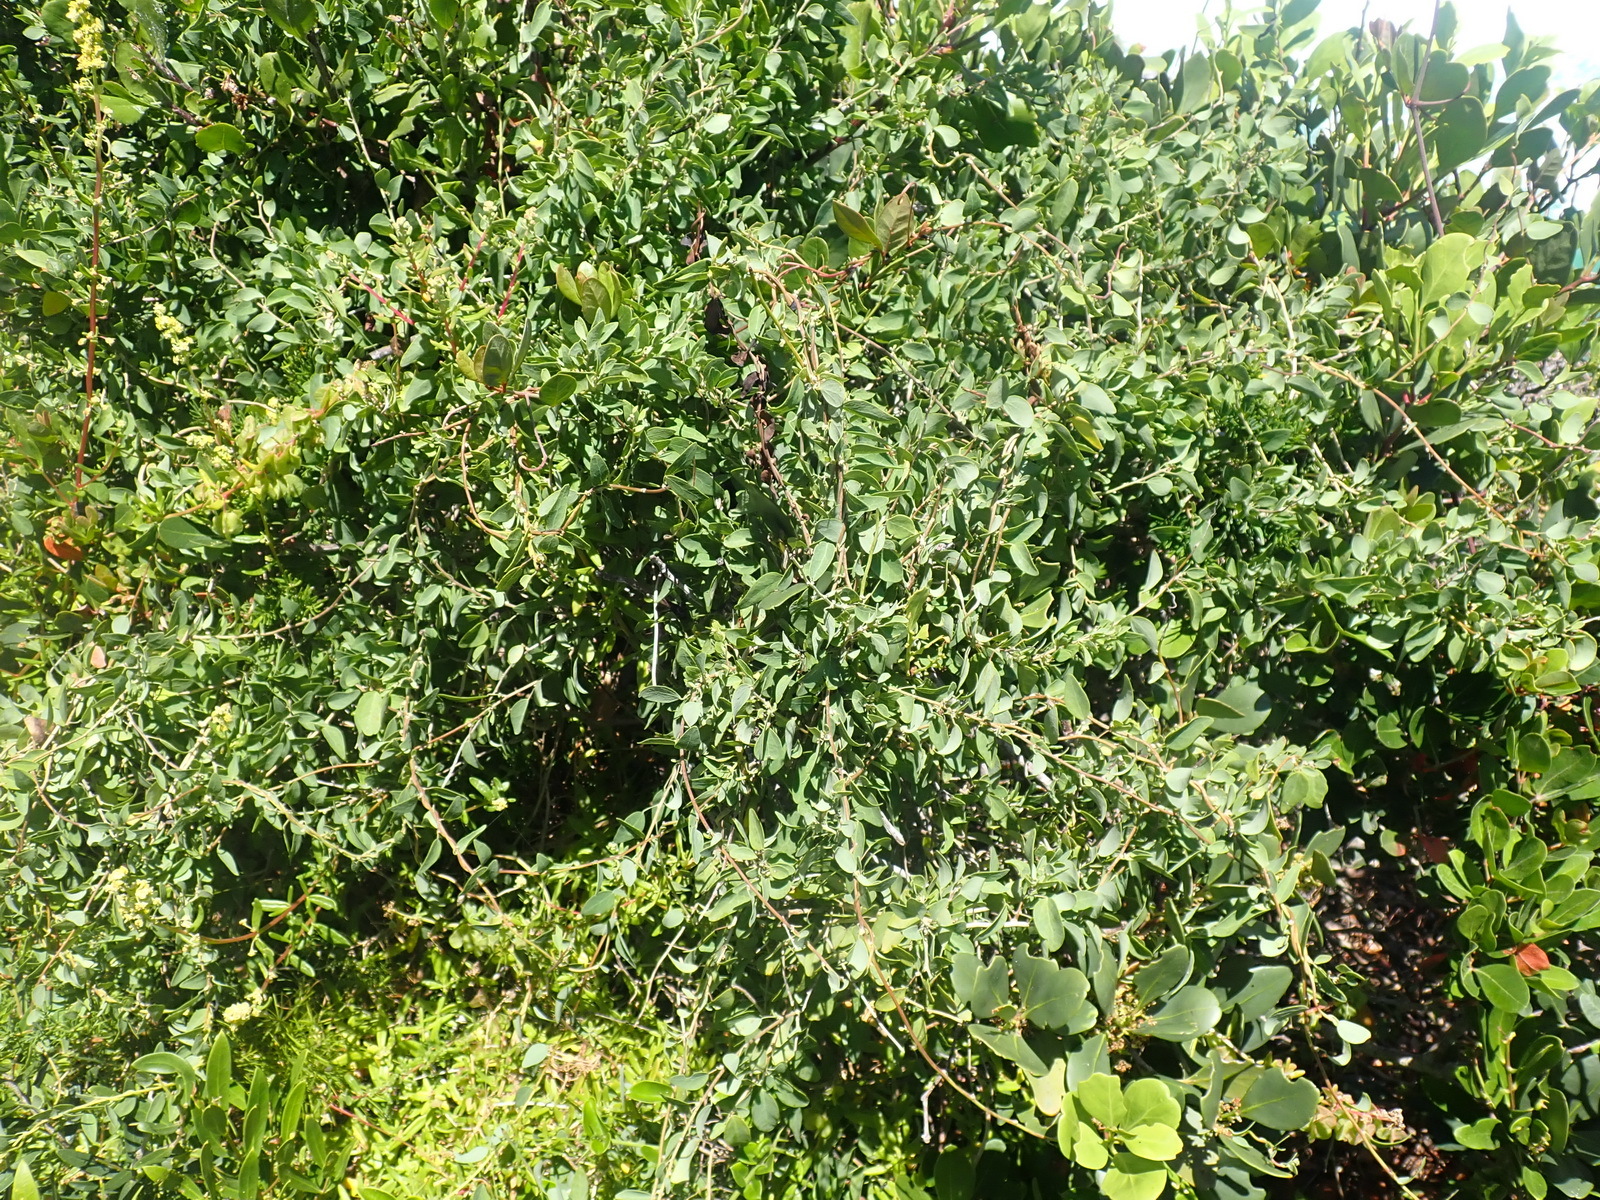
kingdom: Plantae
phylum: Tracheophyta
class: Magnoliopsida
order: Ranunculales
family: Menispermaceae
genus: Cissampelos
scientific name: Cissampelos capensis
